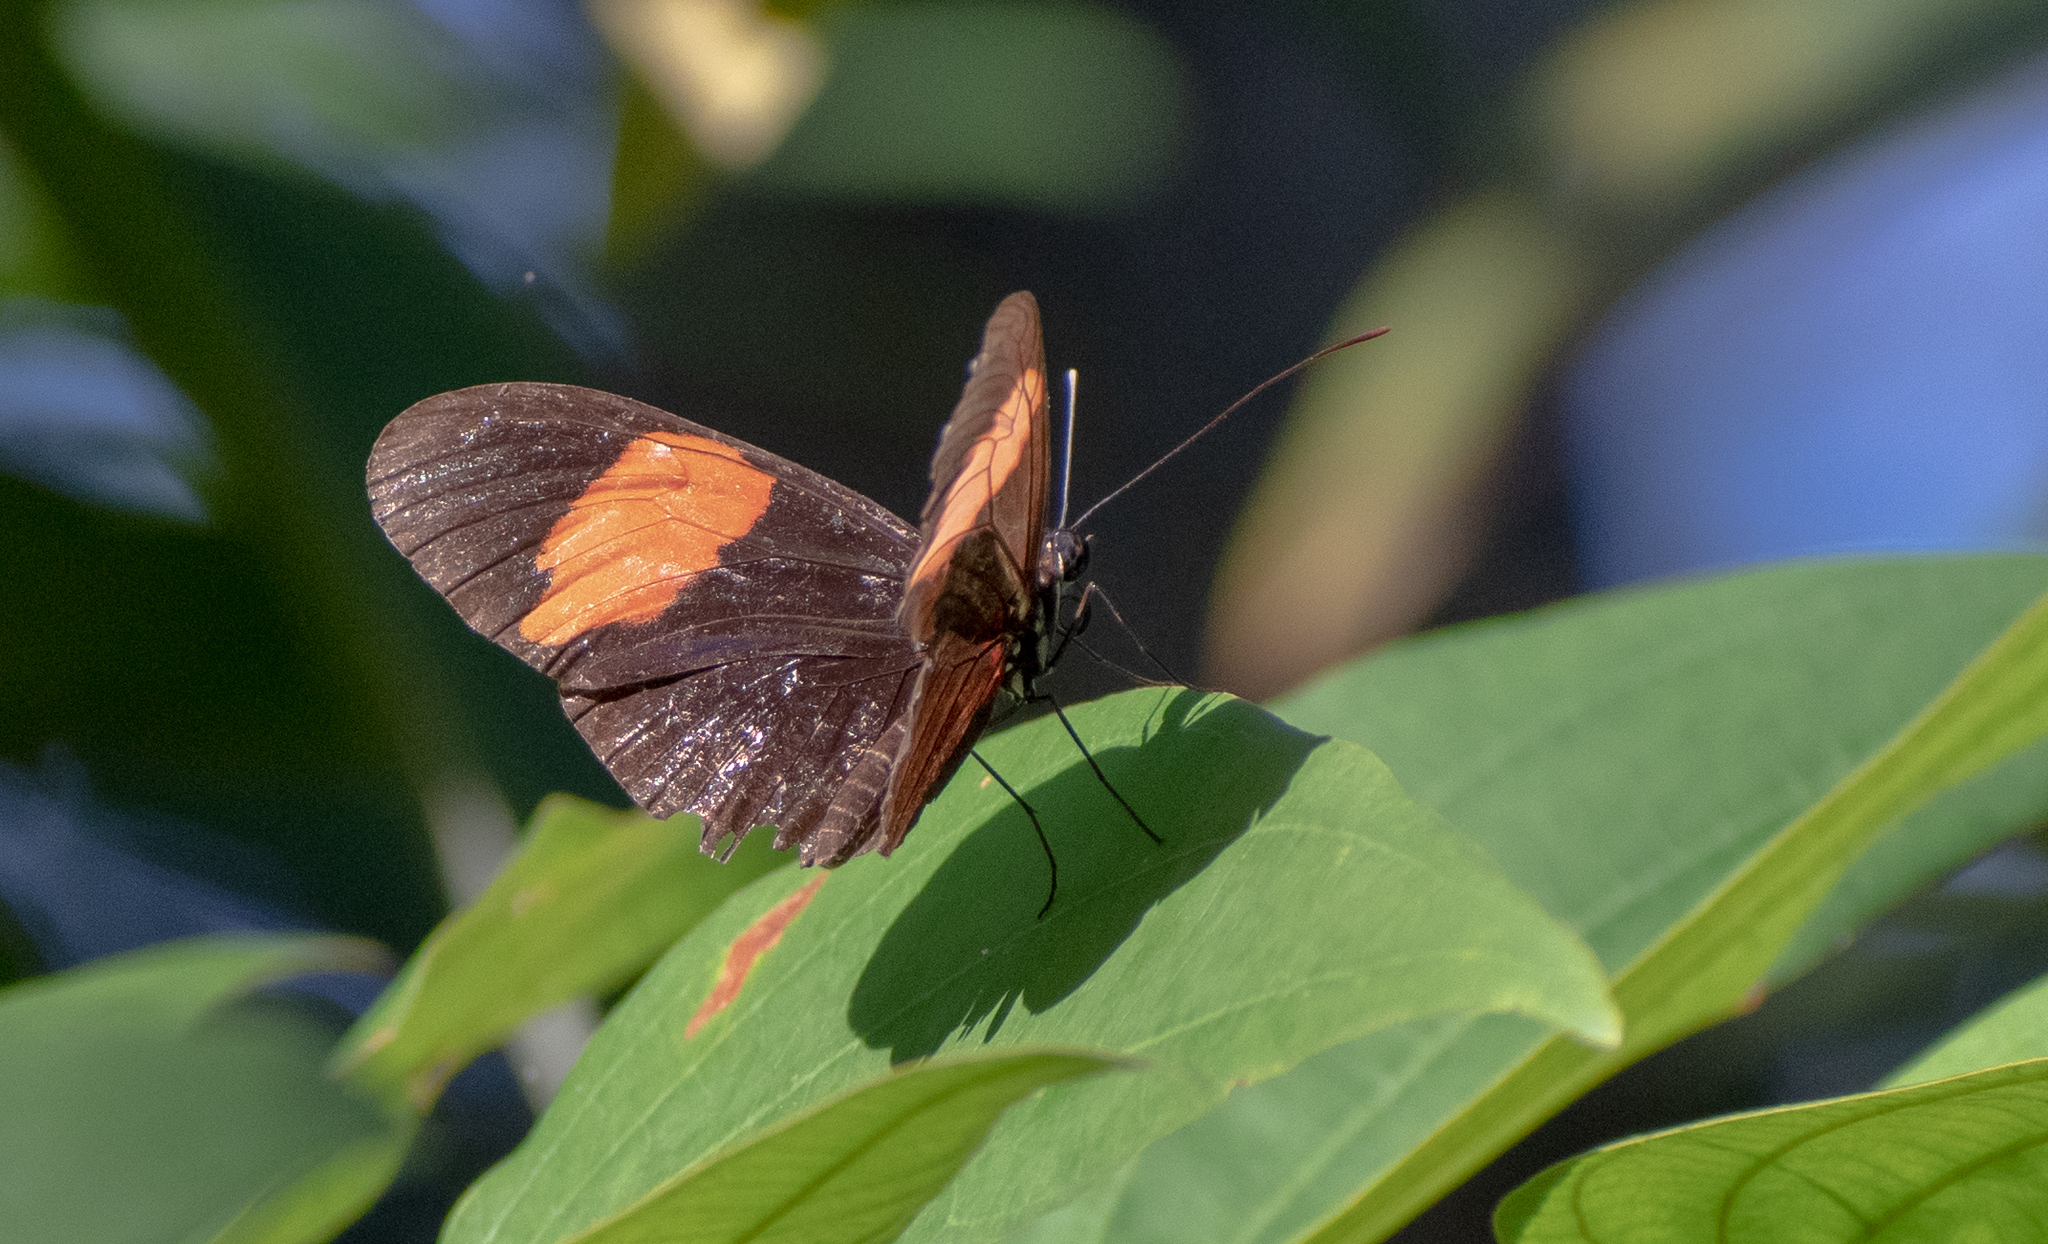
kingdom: Animalia
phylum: Arthropoda
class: Insecta
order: Lepidoptera
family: Nymphalidae
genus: Heliconius
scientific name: Heliconius melpomene
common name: Postman
